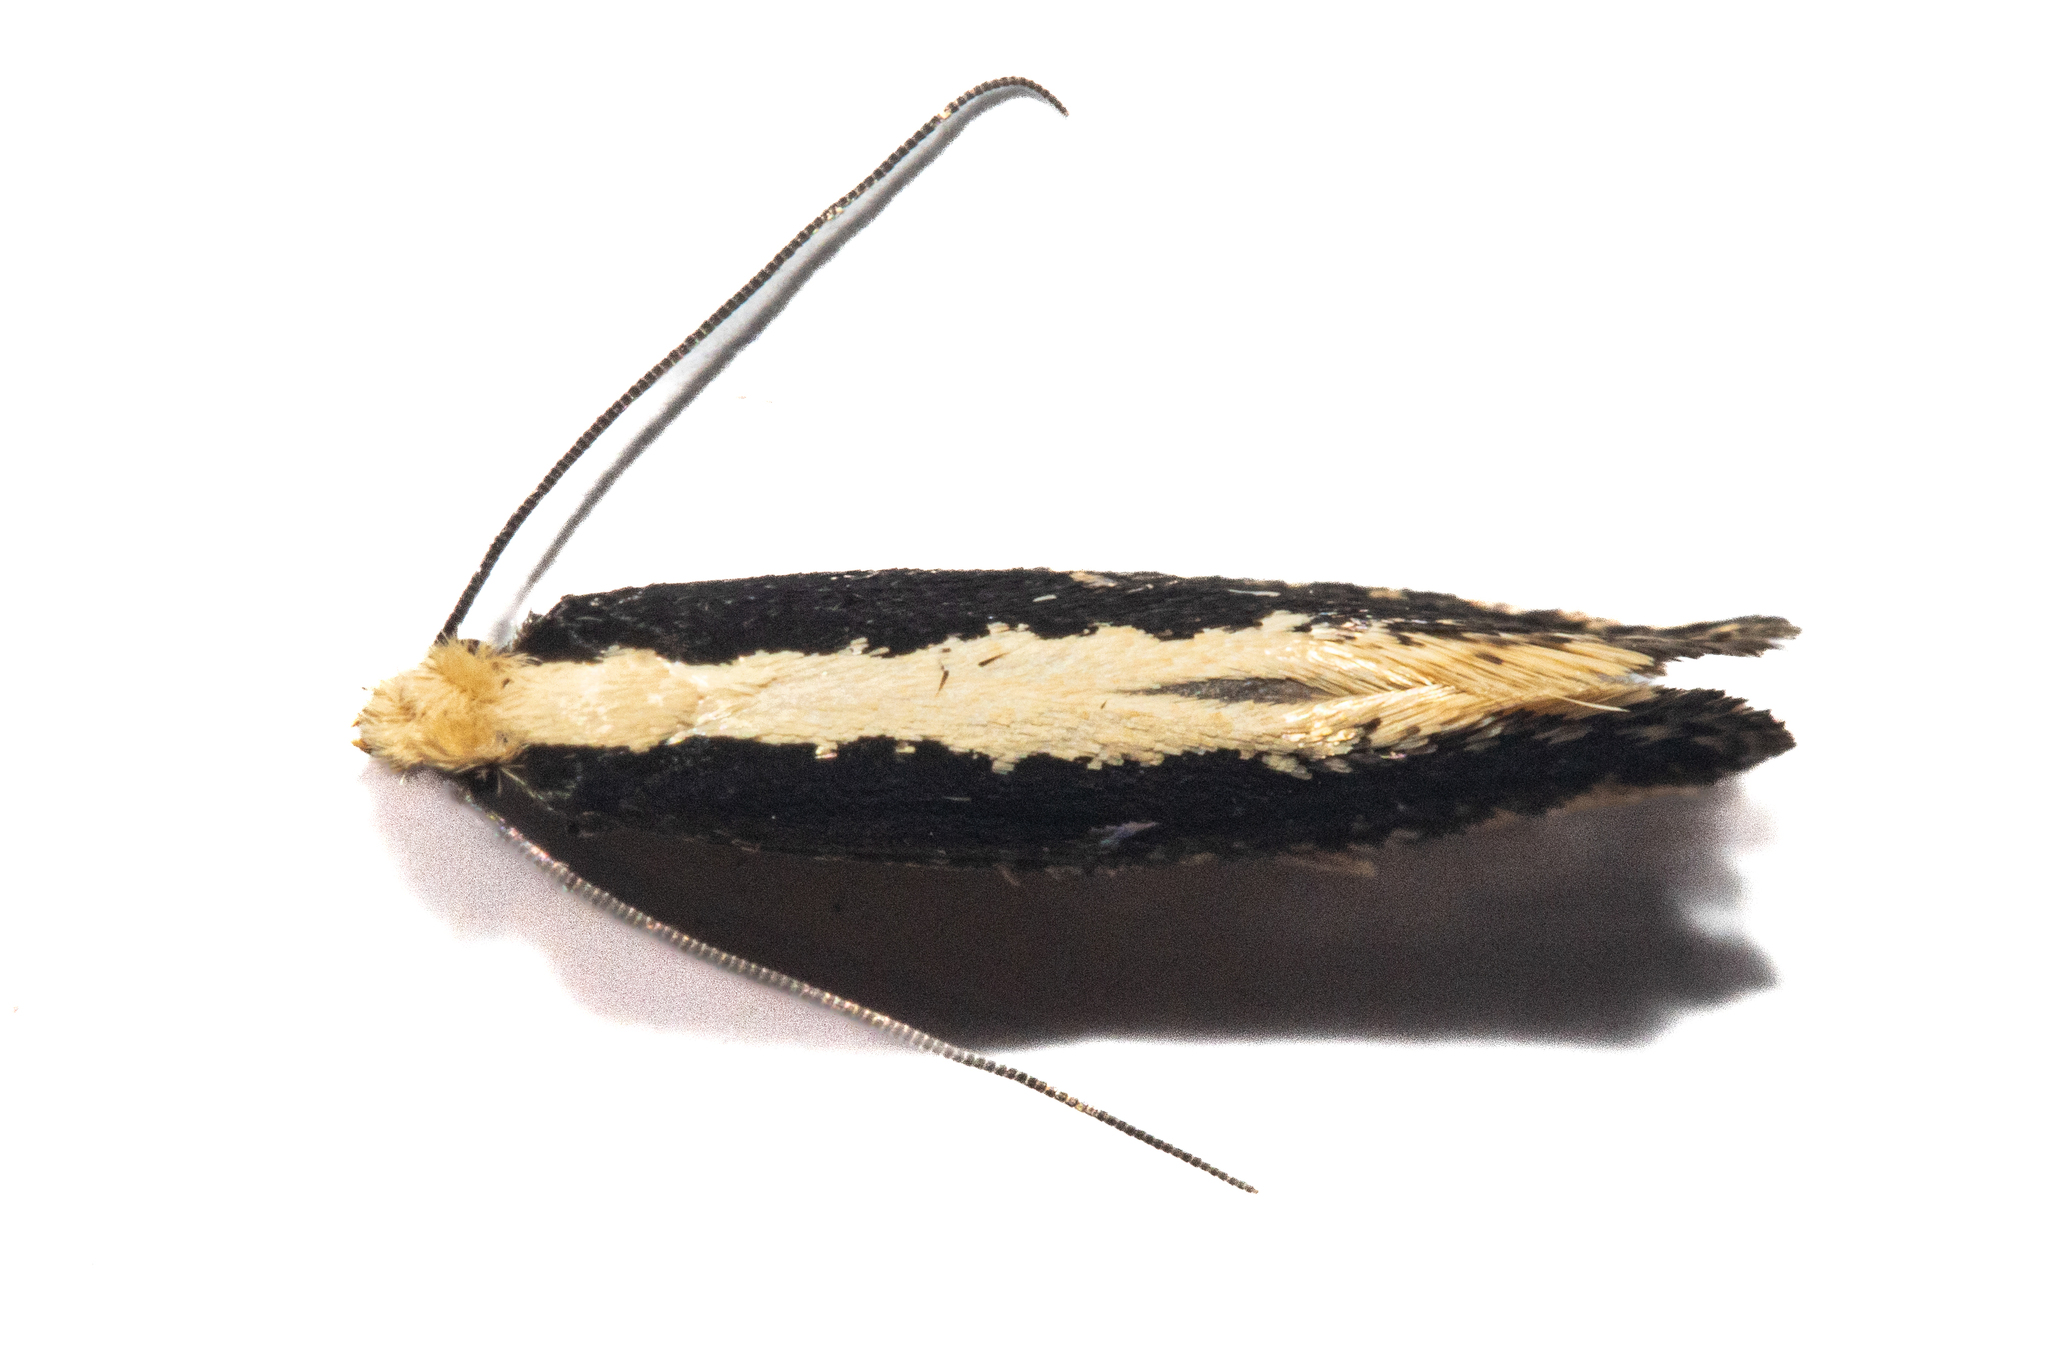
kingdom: Animalia
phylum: Arthropoda
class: Insecta
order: Lepidoptera
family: Tineidae
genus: Monopis
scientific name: Monopis ethelella
